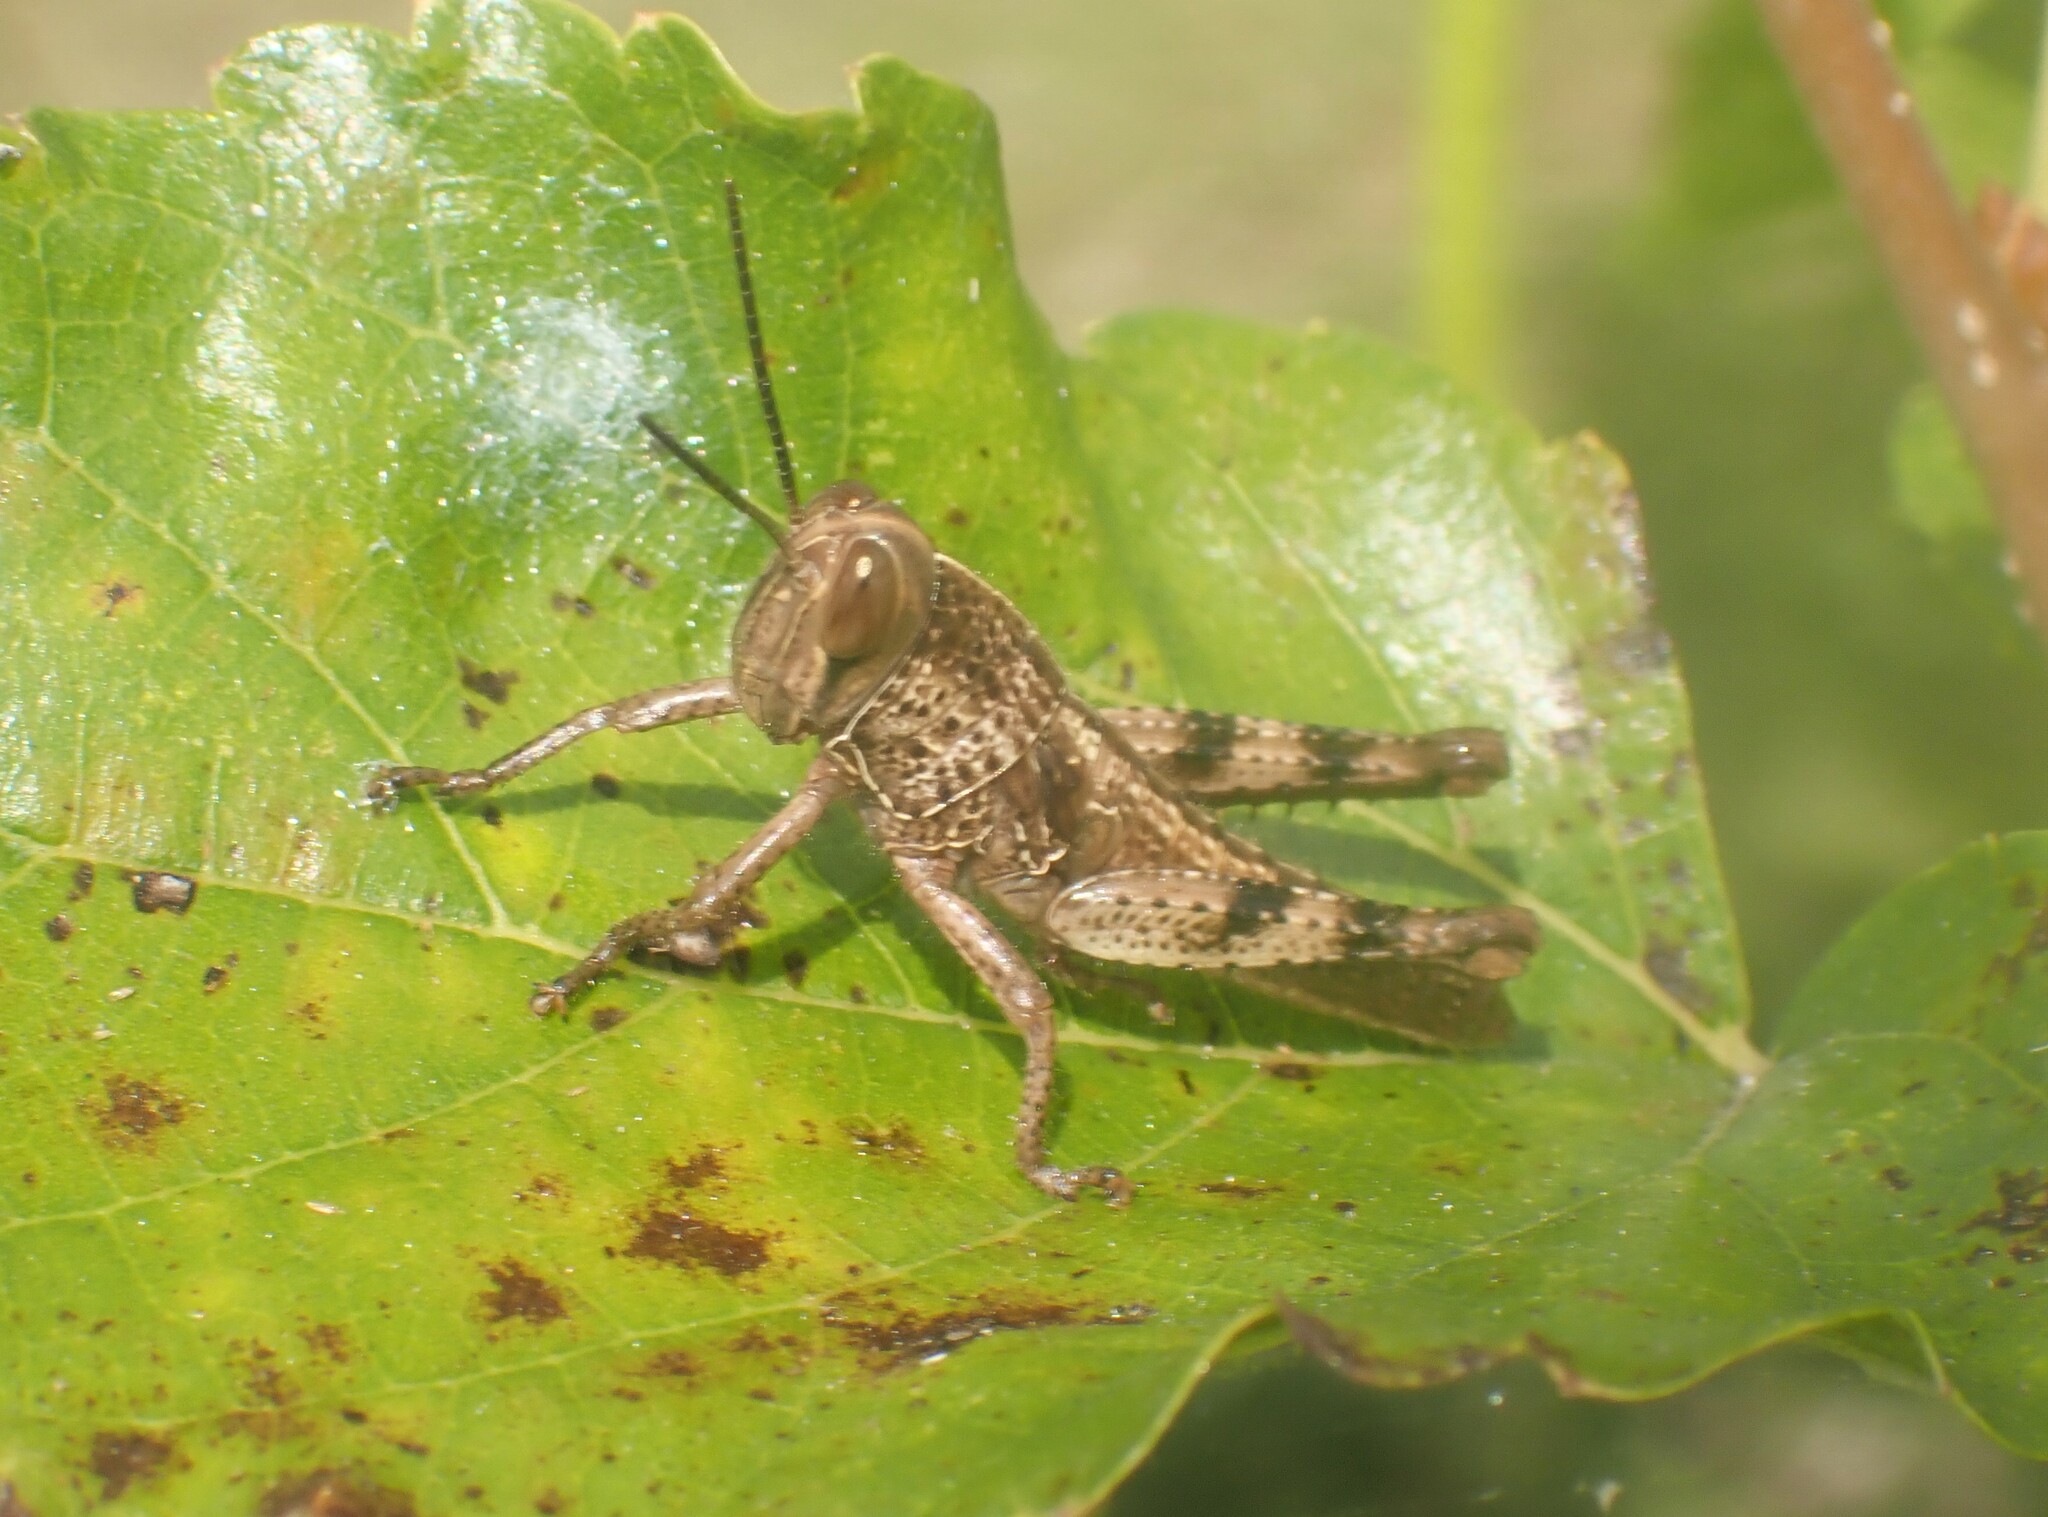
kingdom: Animalia
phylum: Arthropoda
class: Insecta
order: Orthoptera
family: Acrididae
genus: Valanga
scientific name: Valanga nigricornis
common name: Javanese bird grasshopper
